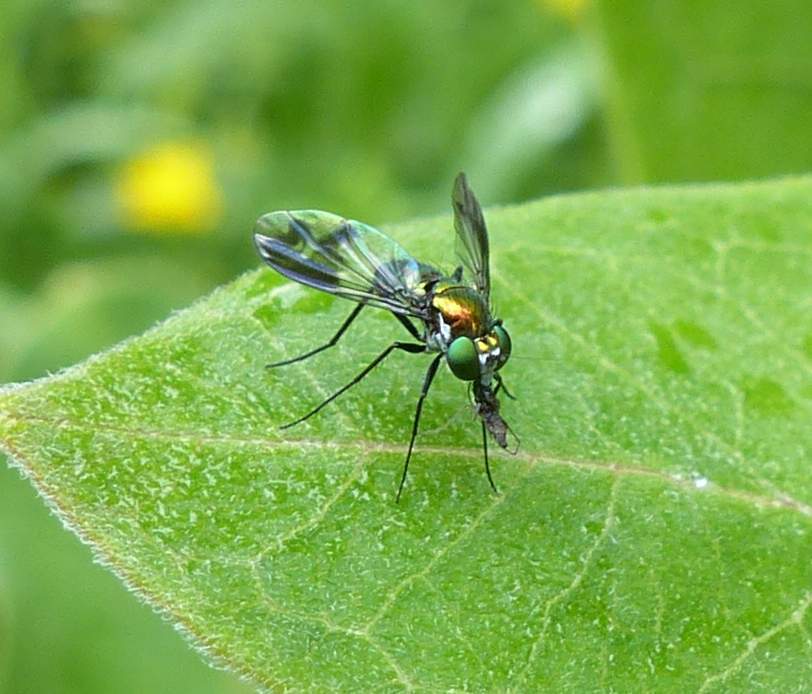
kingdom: Animalia
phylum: Arthropoda
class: Insecta
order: Diptera
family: Dolichopodidae
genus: Condylostylus
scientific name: Condylostylus patibulatus
